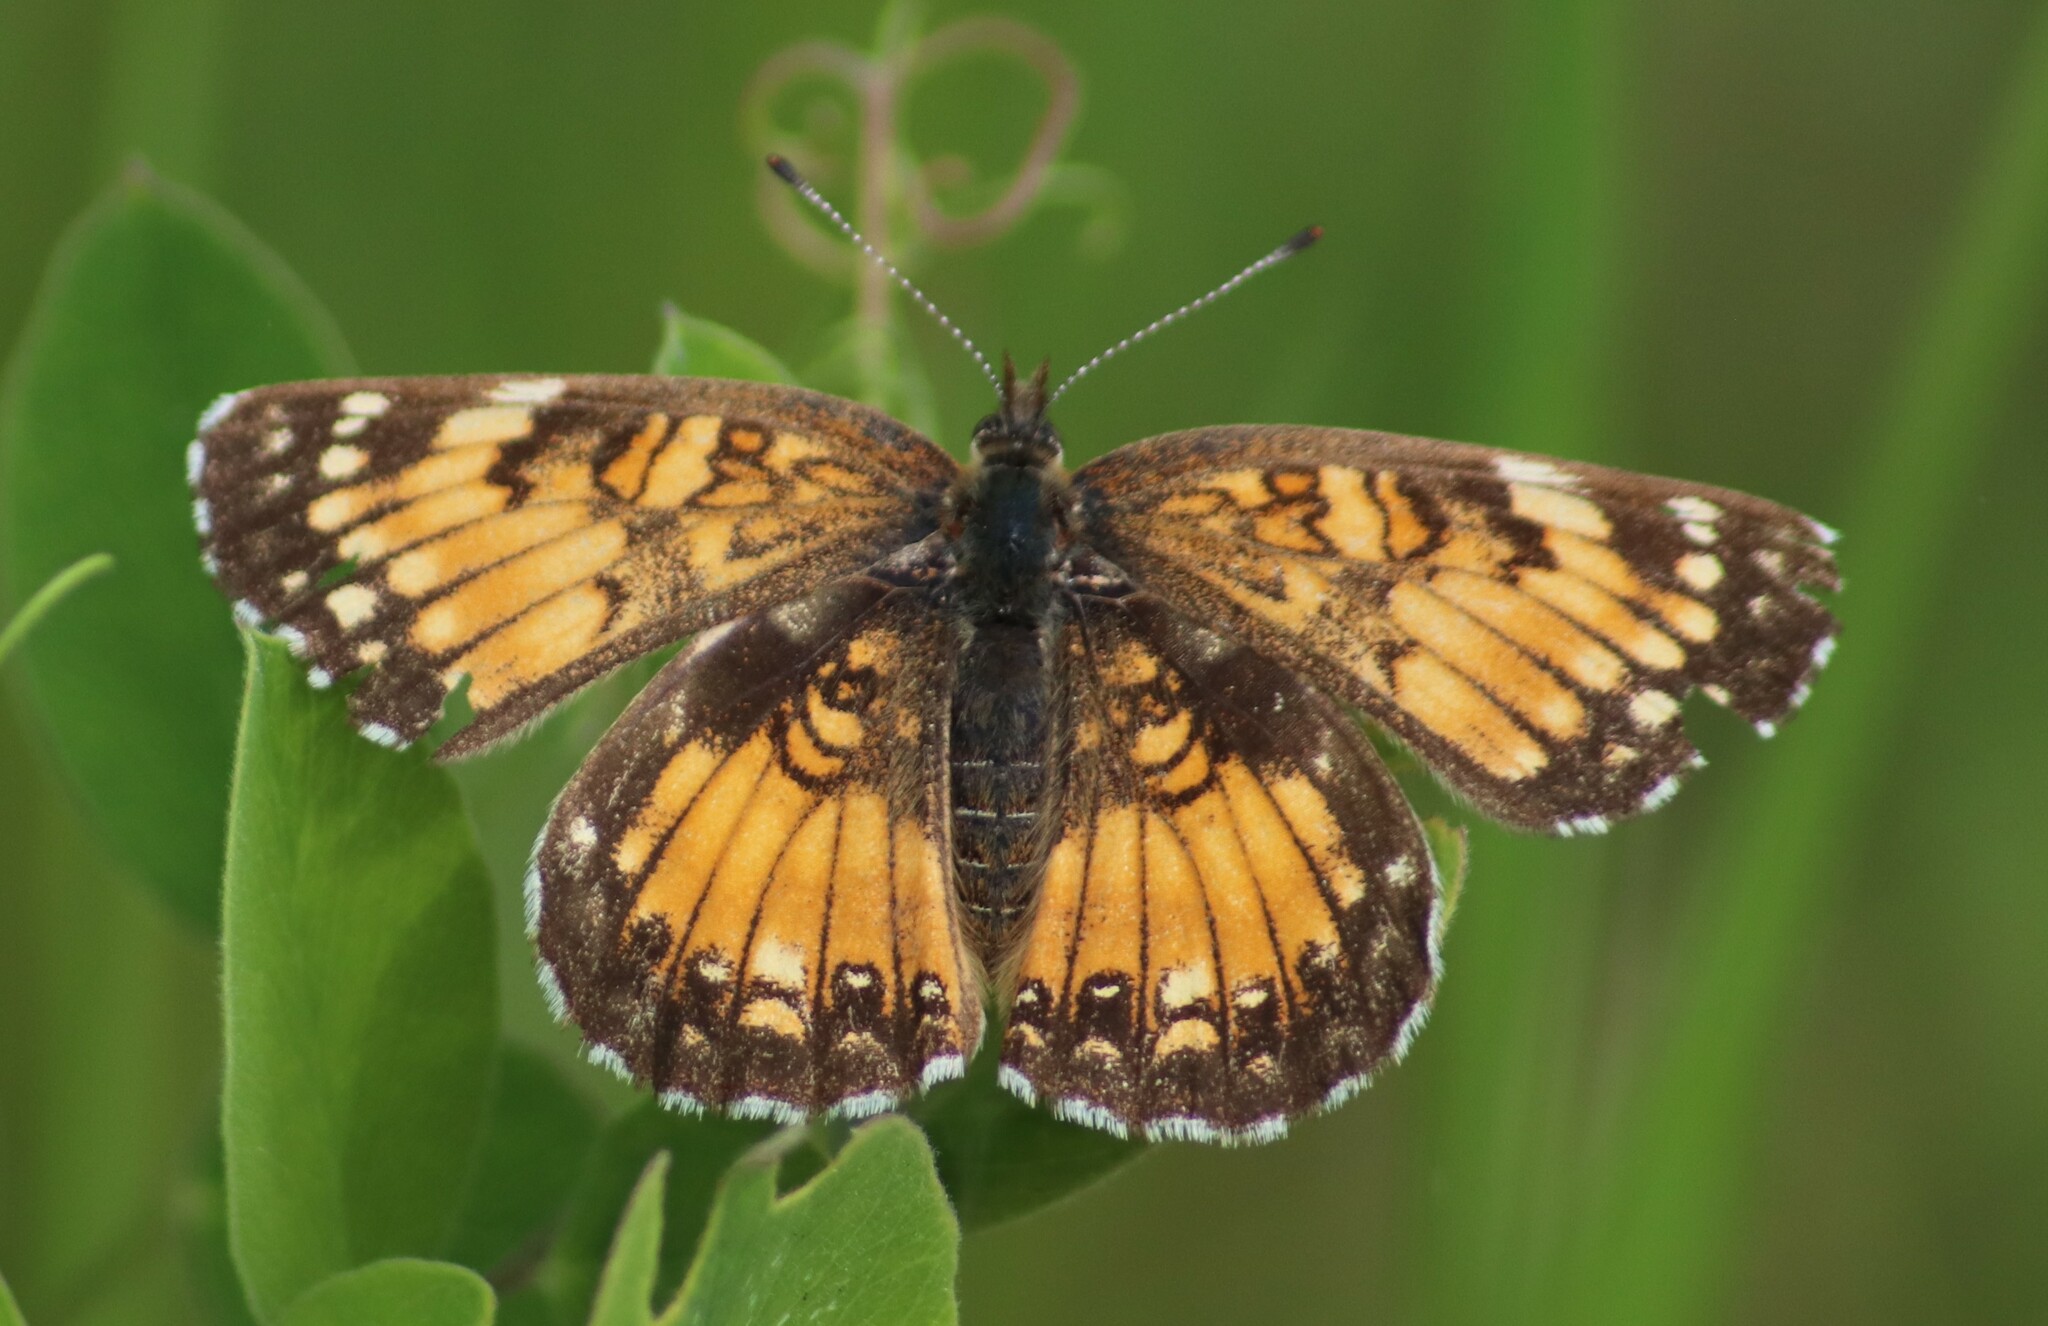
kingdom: Animalia
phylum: Arthropoda
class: Insecta
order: Lepidoptera
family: Nymphalidae
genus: Chlosyne
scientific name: Chlosyne harrisii
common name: Harris's checkerspot
